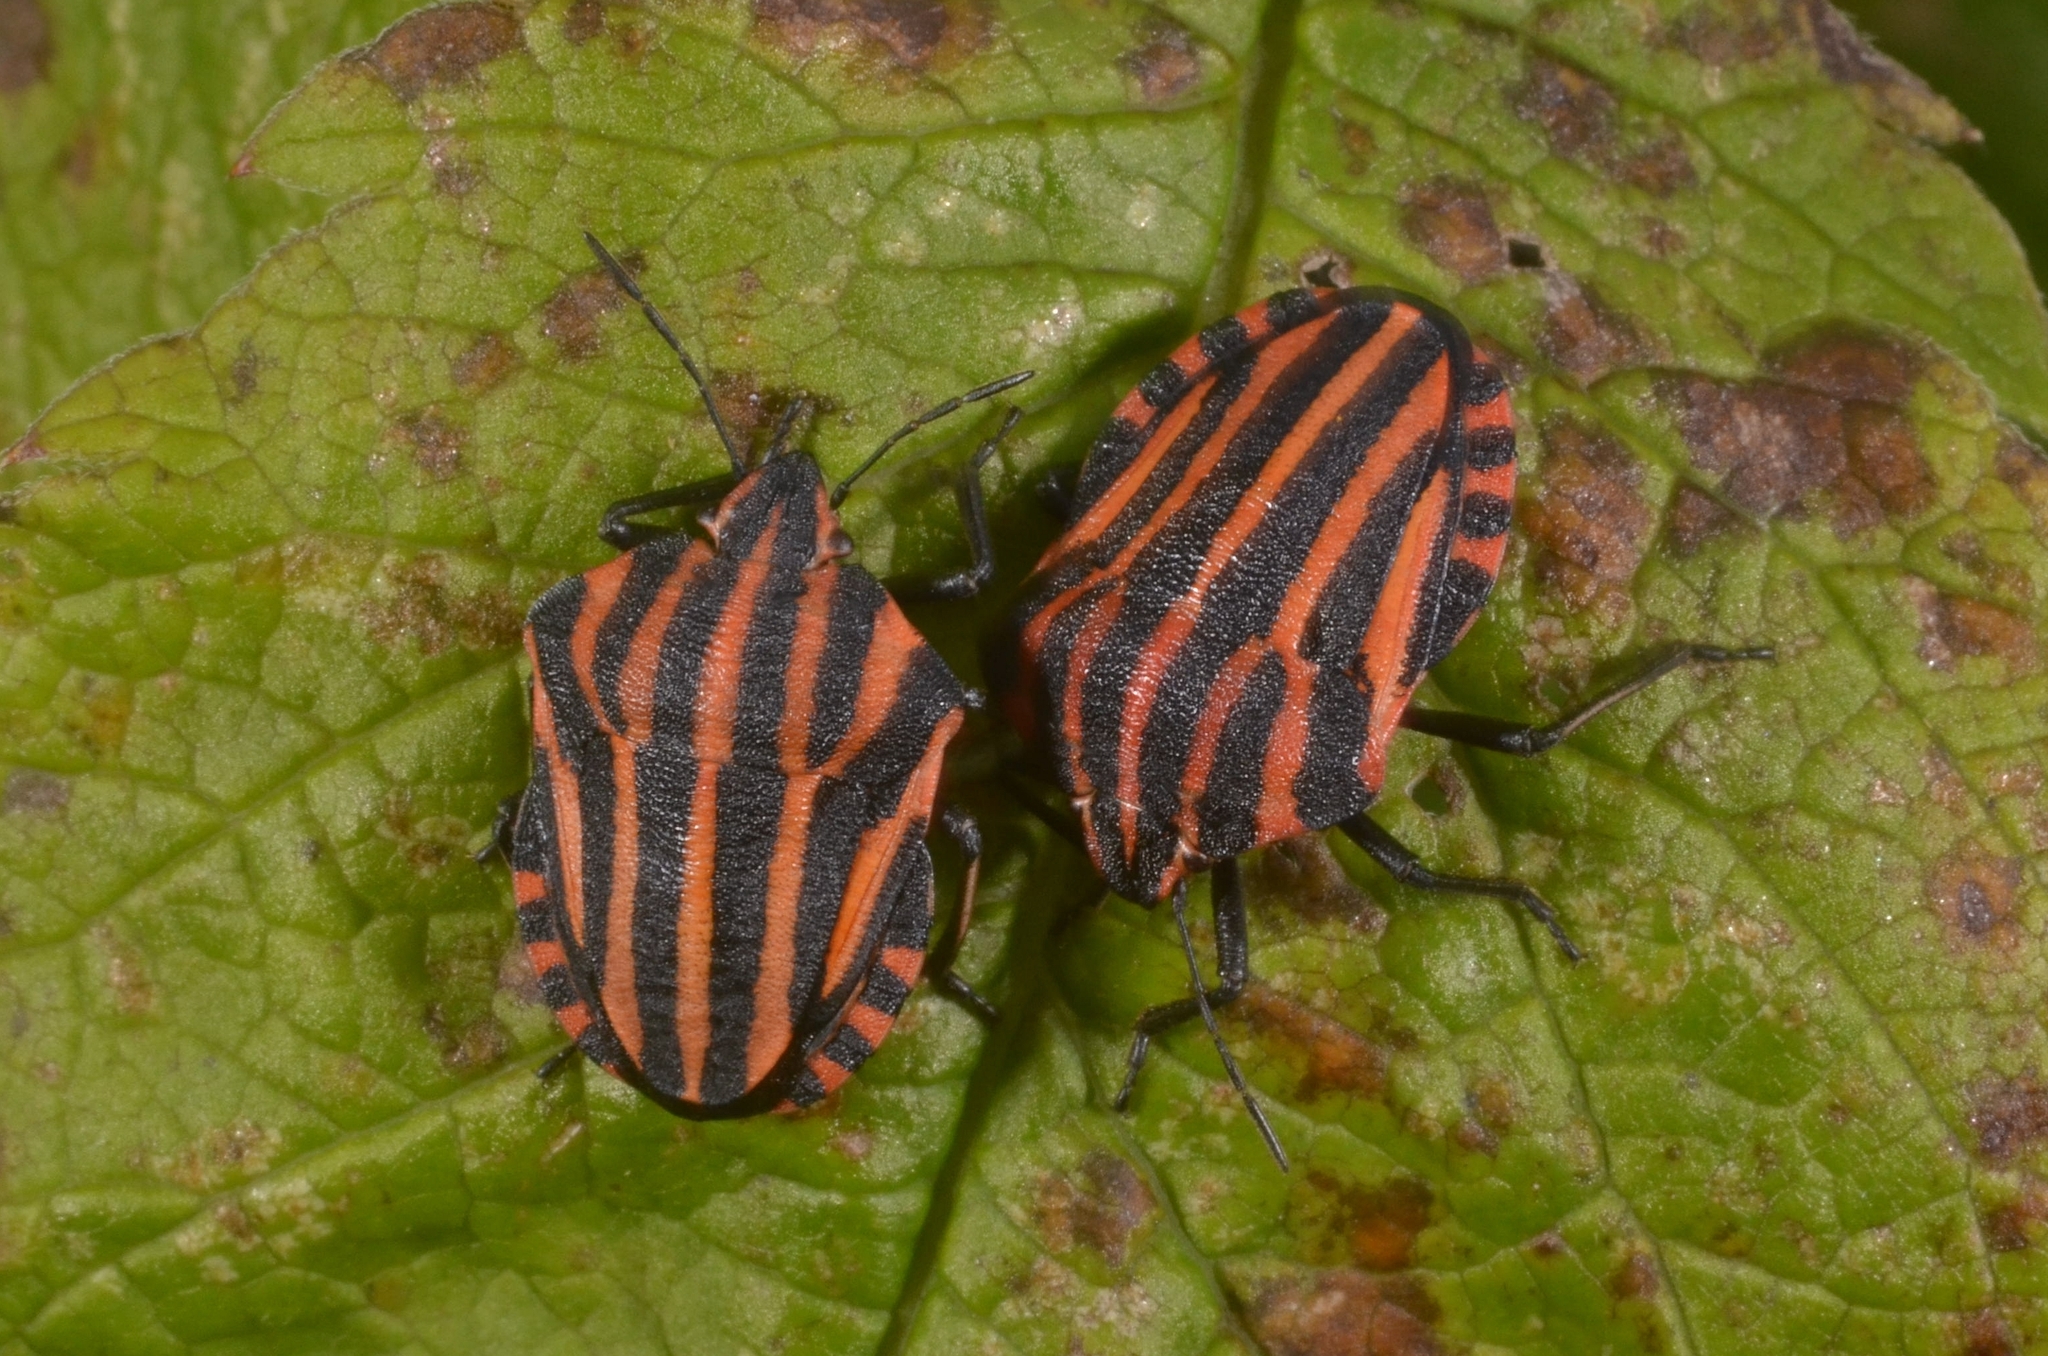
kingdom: Animalia
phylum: Arthropoda
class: Insecta
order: Hemiptera
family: Pentatomidae
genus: Graphosoma
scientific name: Graphosoma italicum
